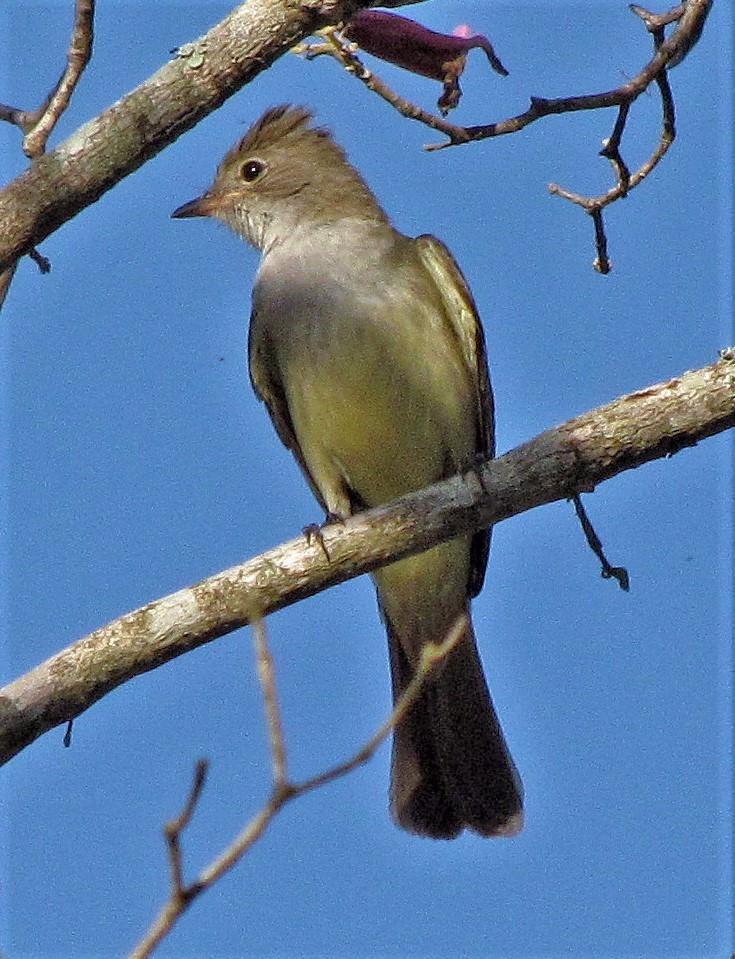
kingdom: Animalia
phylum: Chordata
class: Aves
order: Passeriformes
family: Tyrannidae
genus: Elaenia
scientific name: Elaenia flavogaster
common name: Yellow-bellied elaenia
